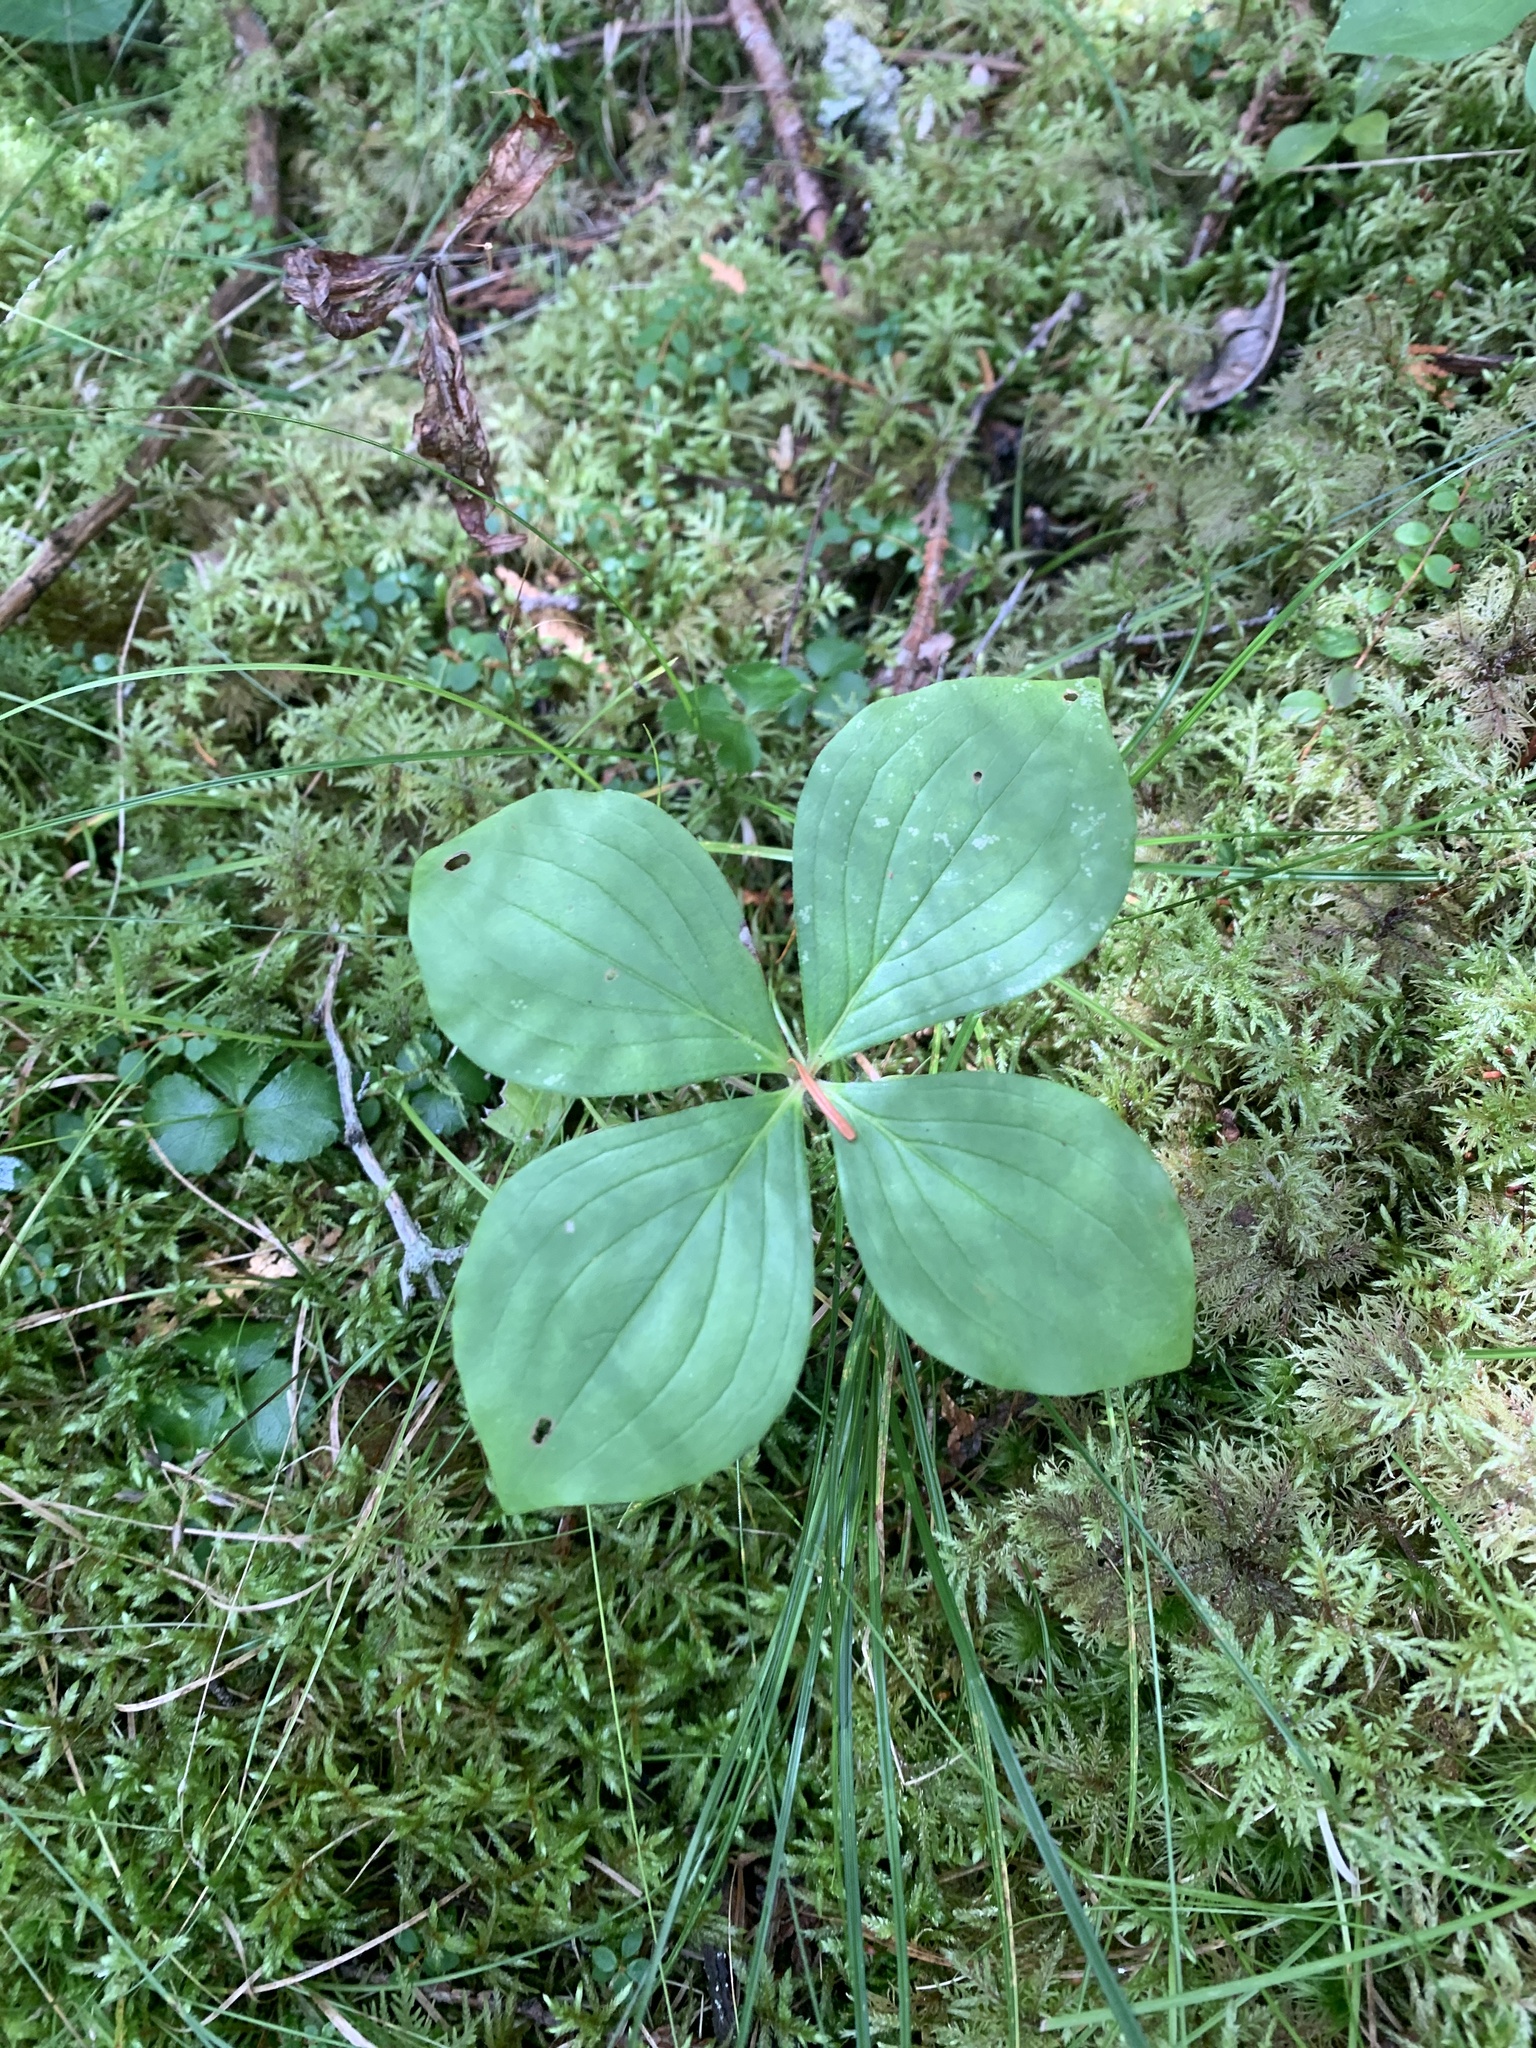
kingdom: Plantae
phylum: Tracheophyta
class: Magnoliopsida
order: Cornales
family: Cornaceae
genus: Cornus
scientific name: Cornus canadensis
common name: Creeping dogwood
